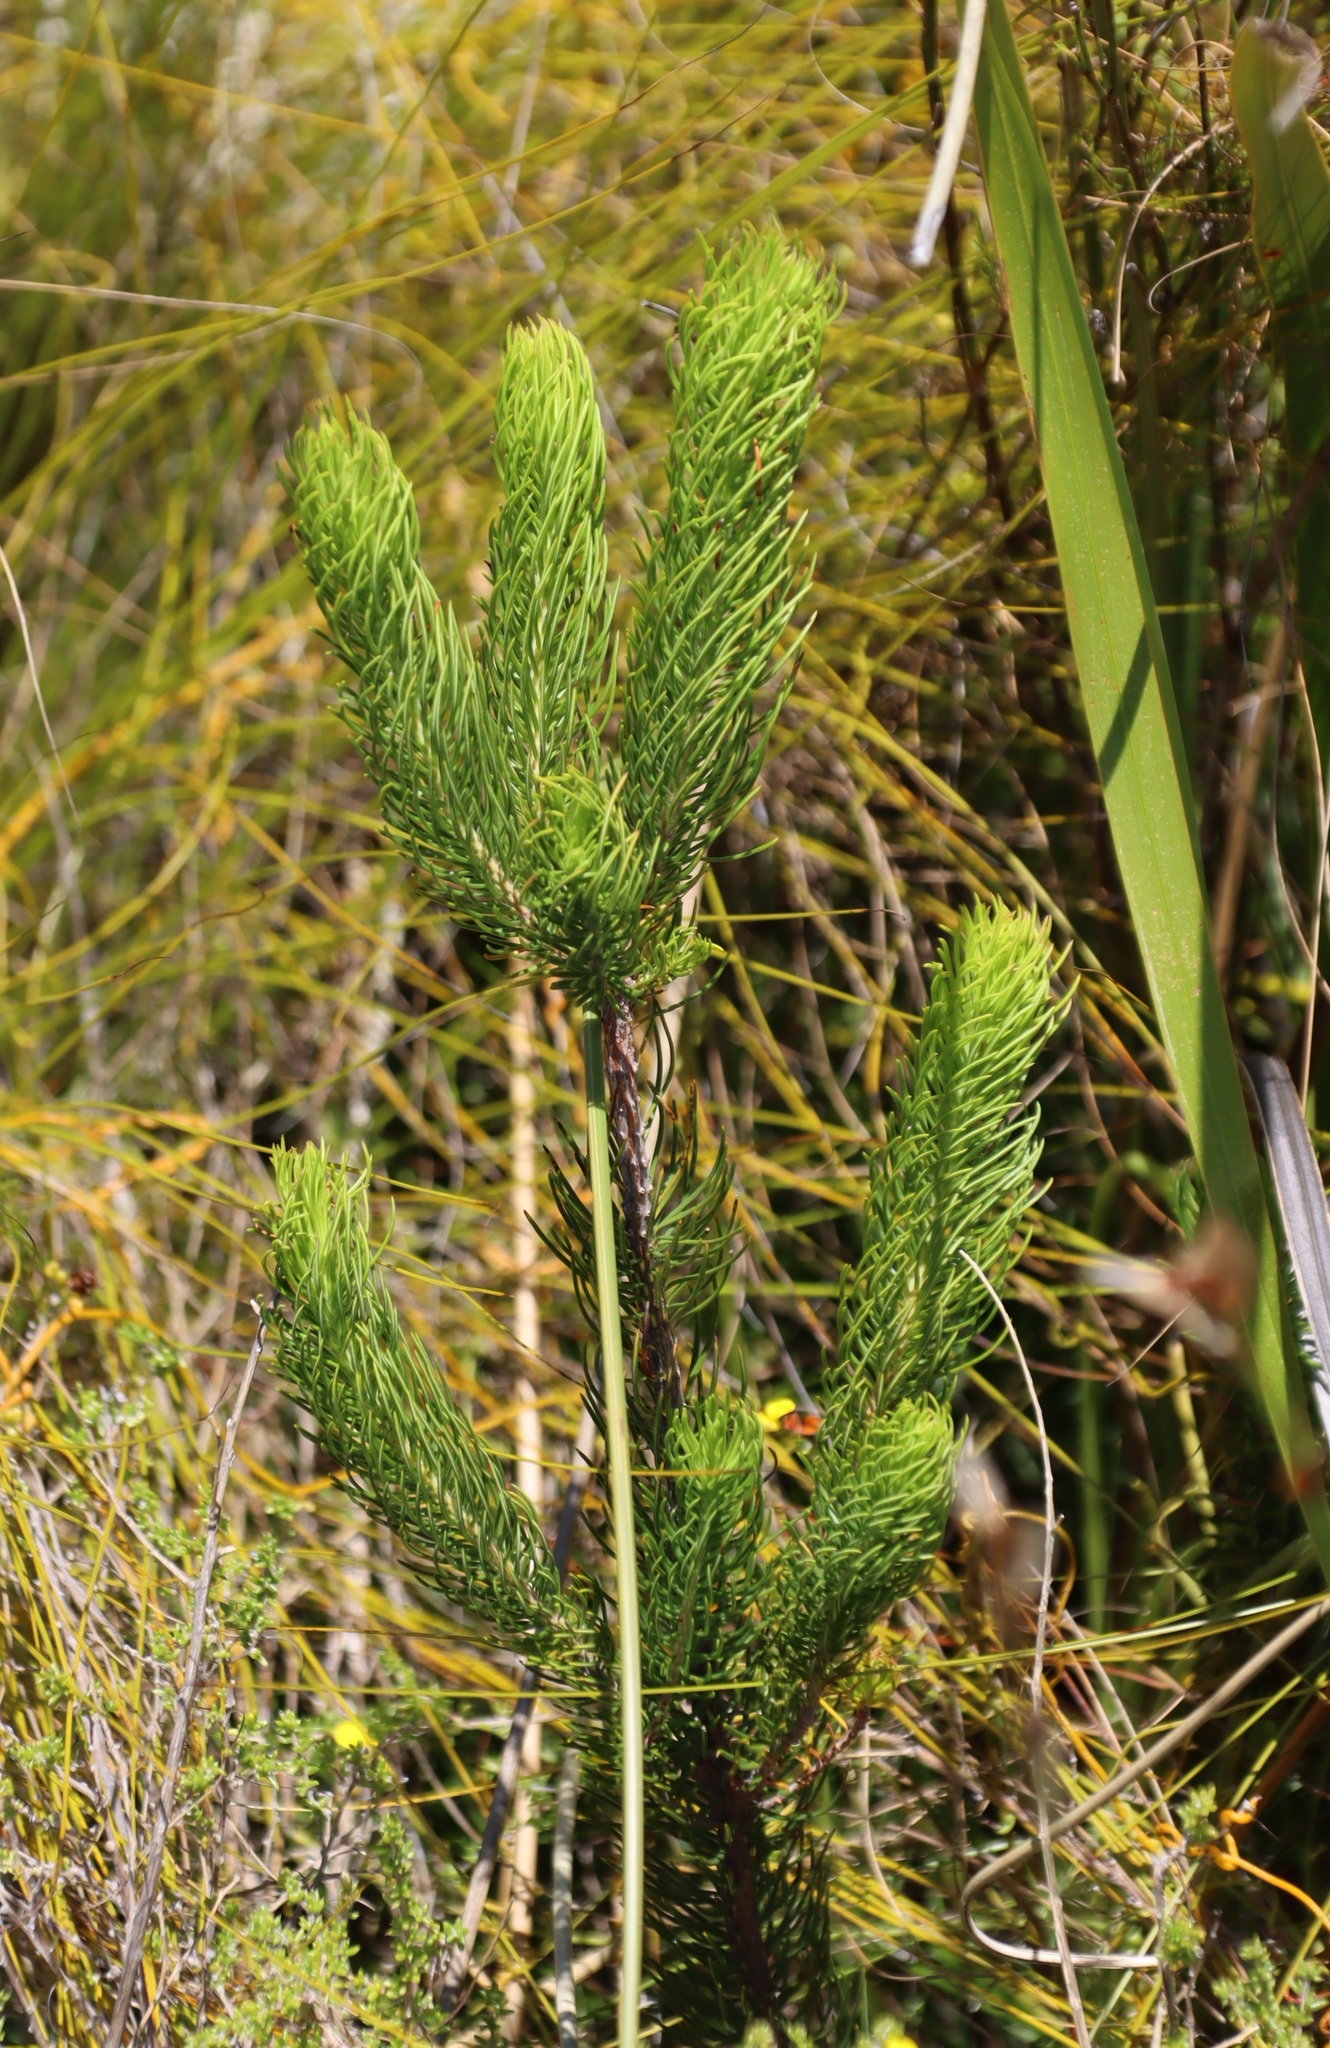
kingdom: Plantae
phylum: Tracheophyta
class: Magnoliopsida
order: Ericales
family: Ericaceae
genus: Erica
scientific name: Erica viscaria
